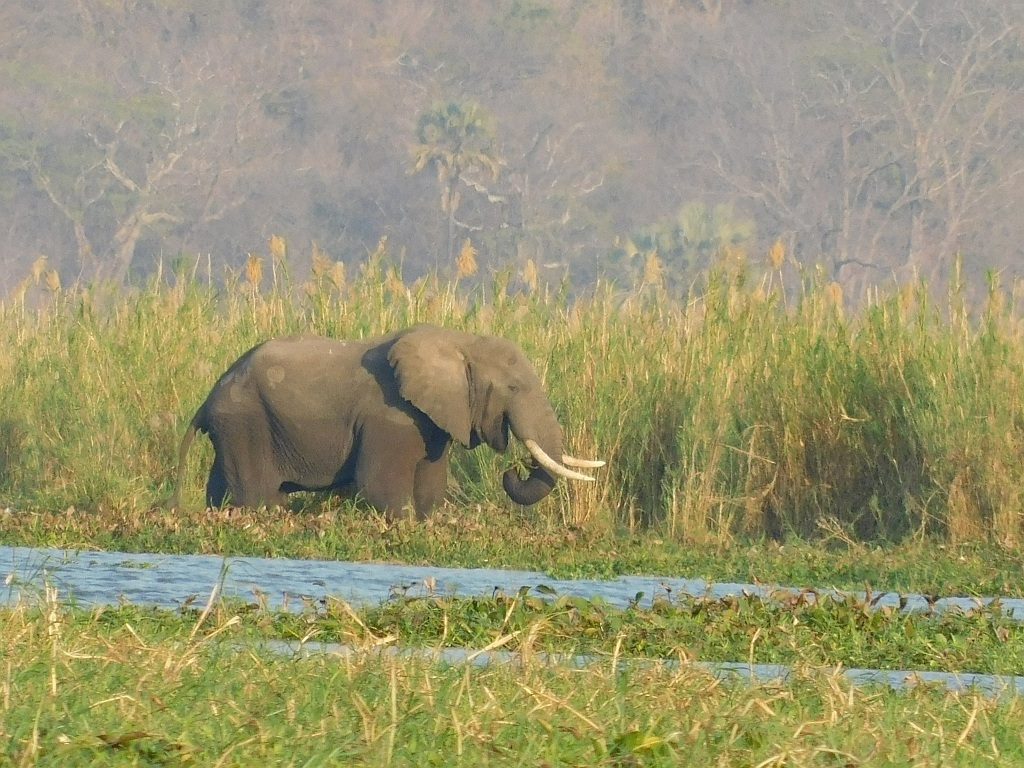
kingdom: Animalia
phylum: Chordata
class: Mammalia
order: Proboscidea
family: Elephantidae
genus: Loxodonta
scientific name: Loxodonta africana
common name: African elephant
